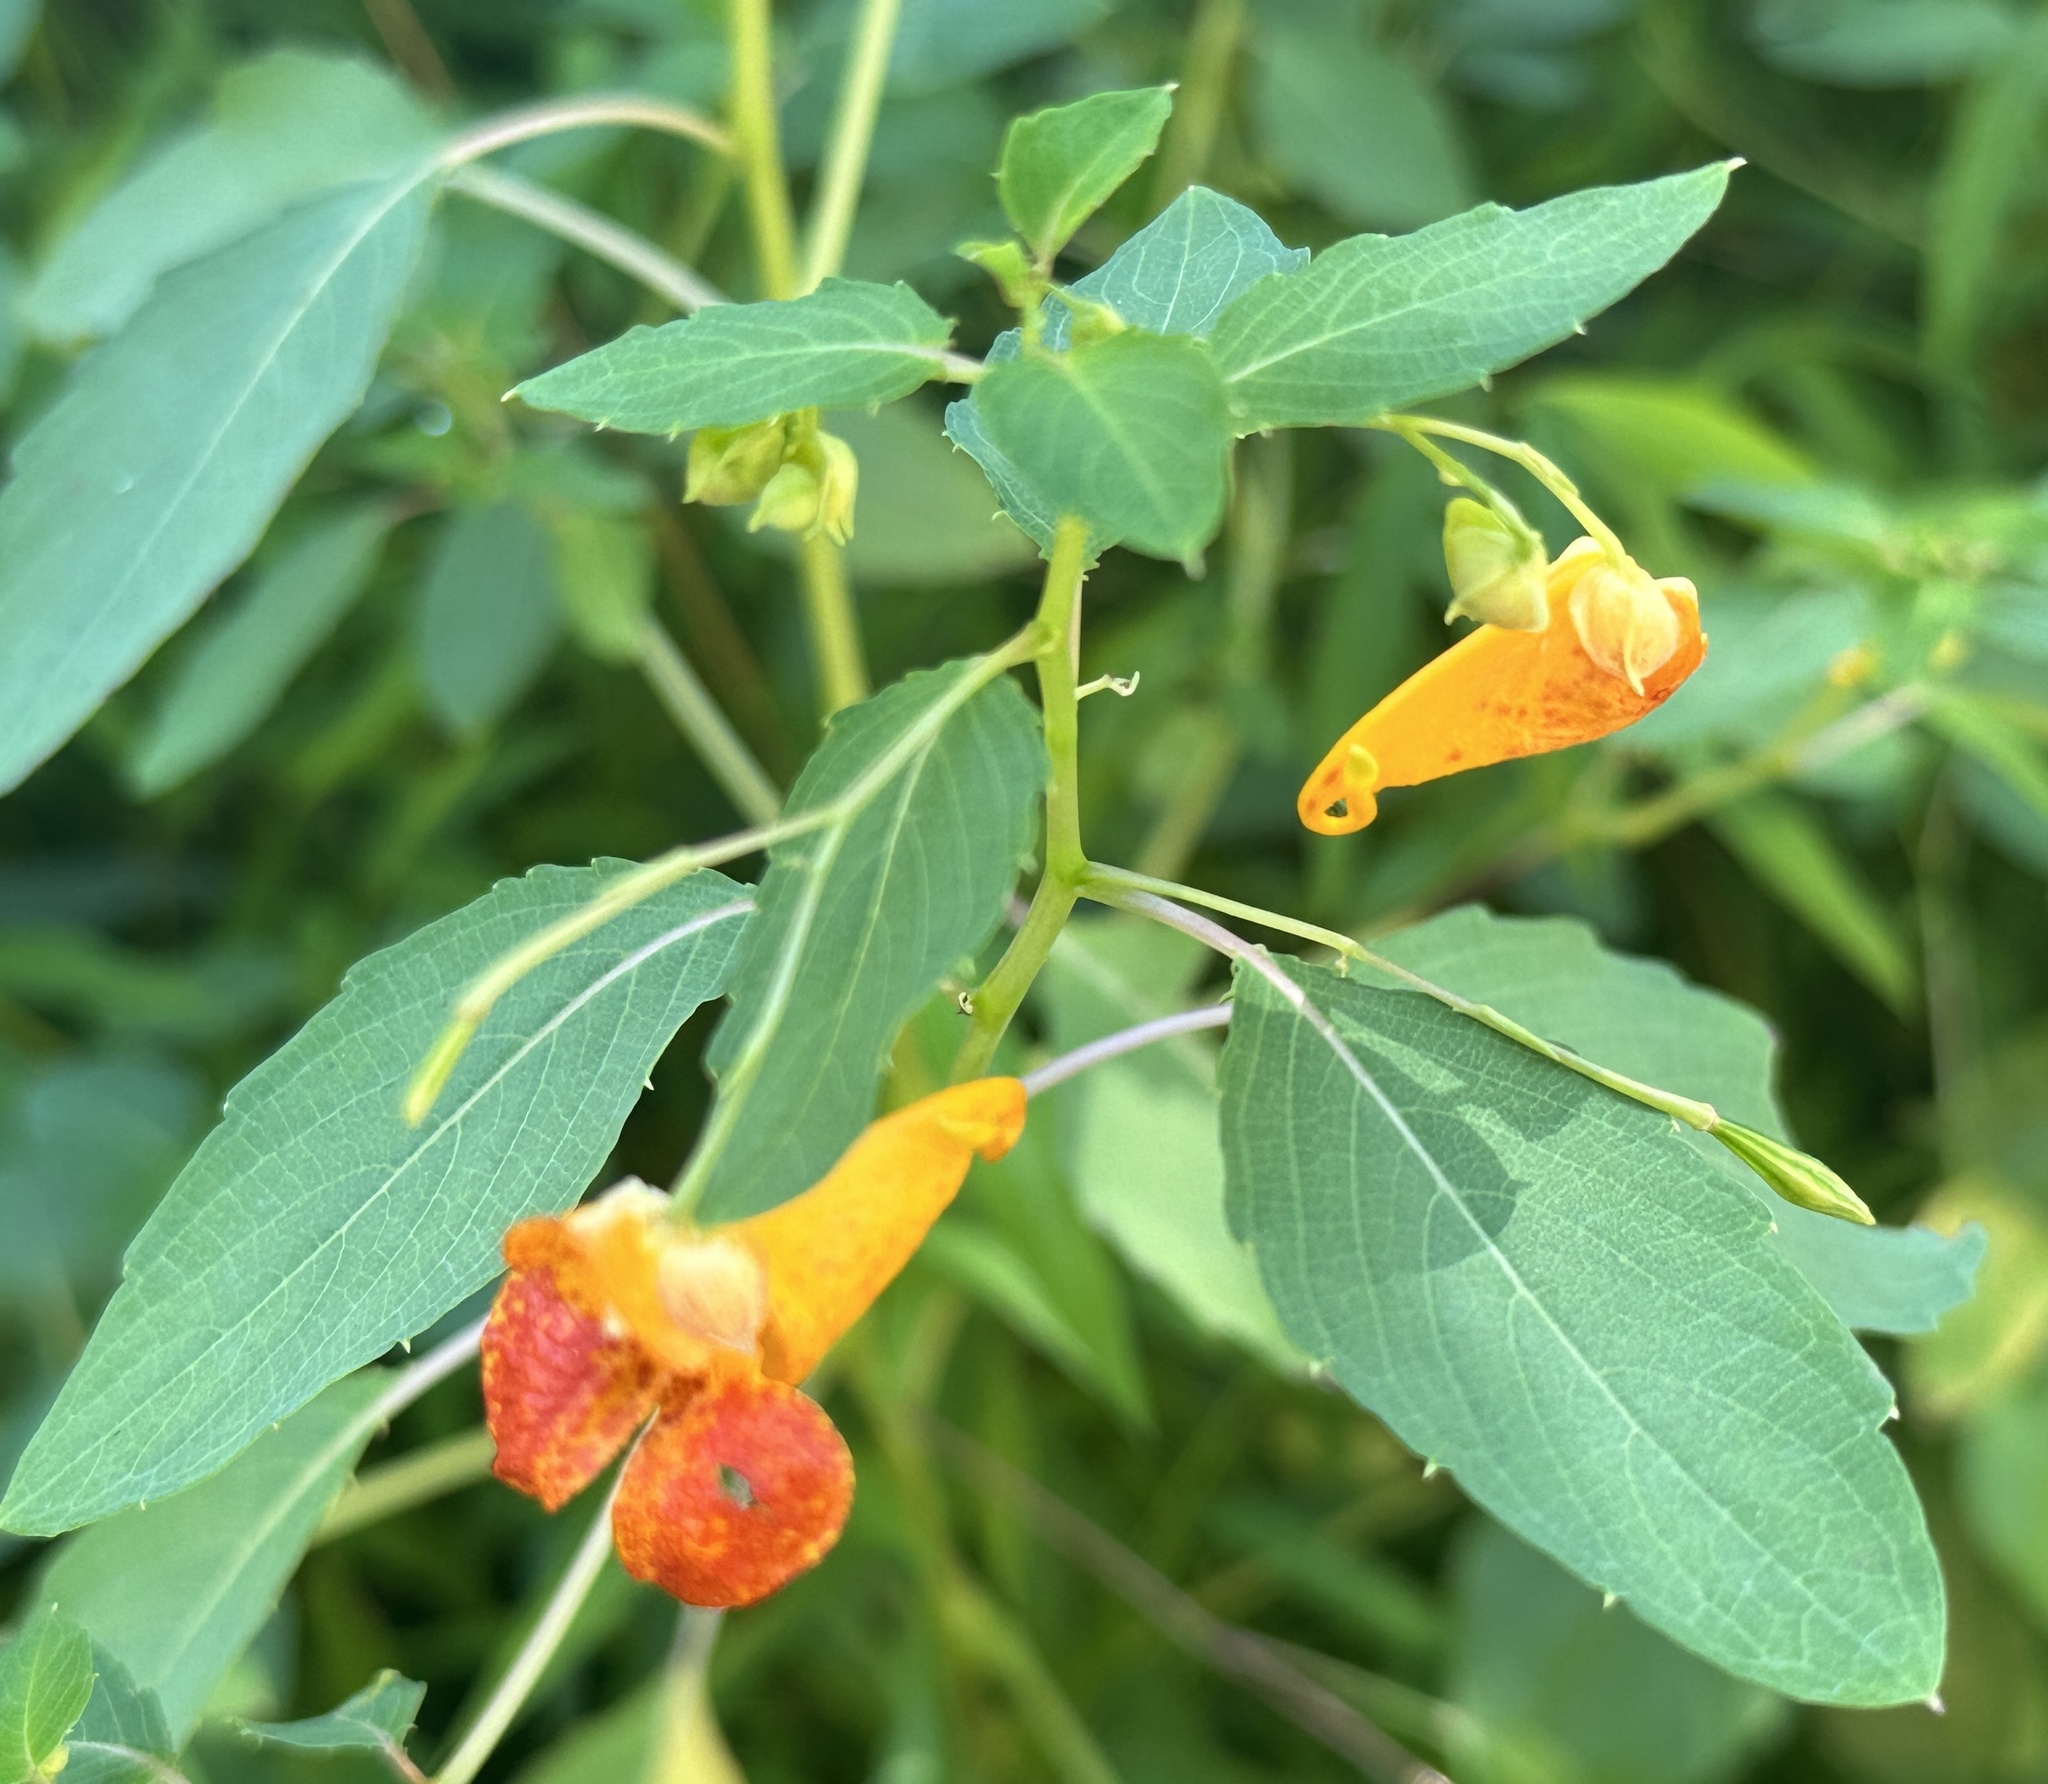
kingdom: Plantae
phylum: Tracheophyta
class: Magnoliopsida
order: Ericales
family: Balsaminaceae
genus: Impatiens
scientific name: Impatiens capensis
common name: Orange balsam
